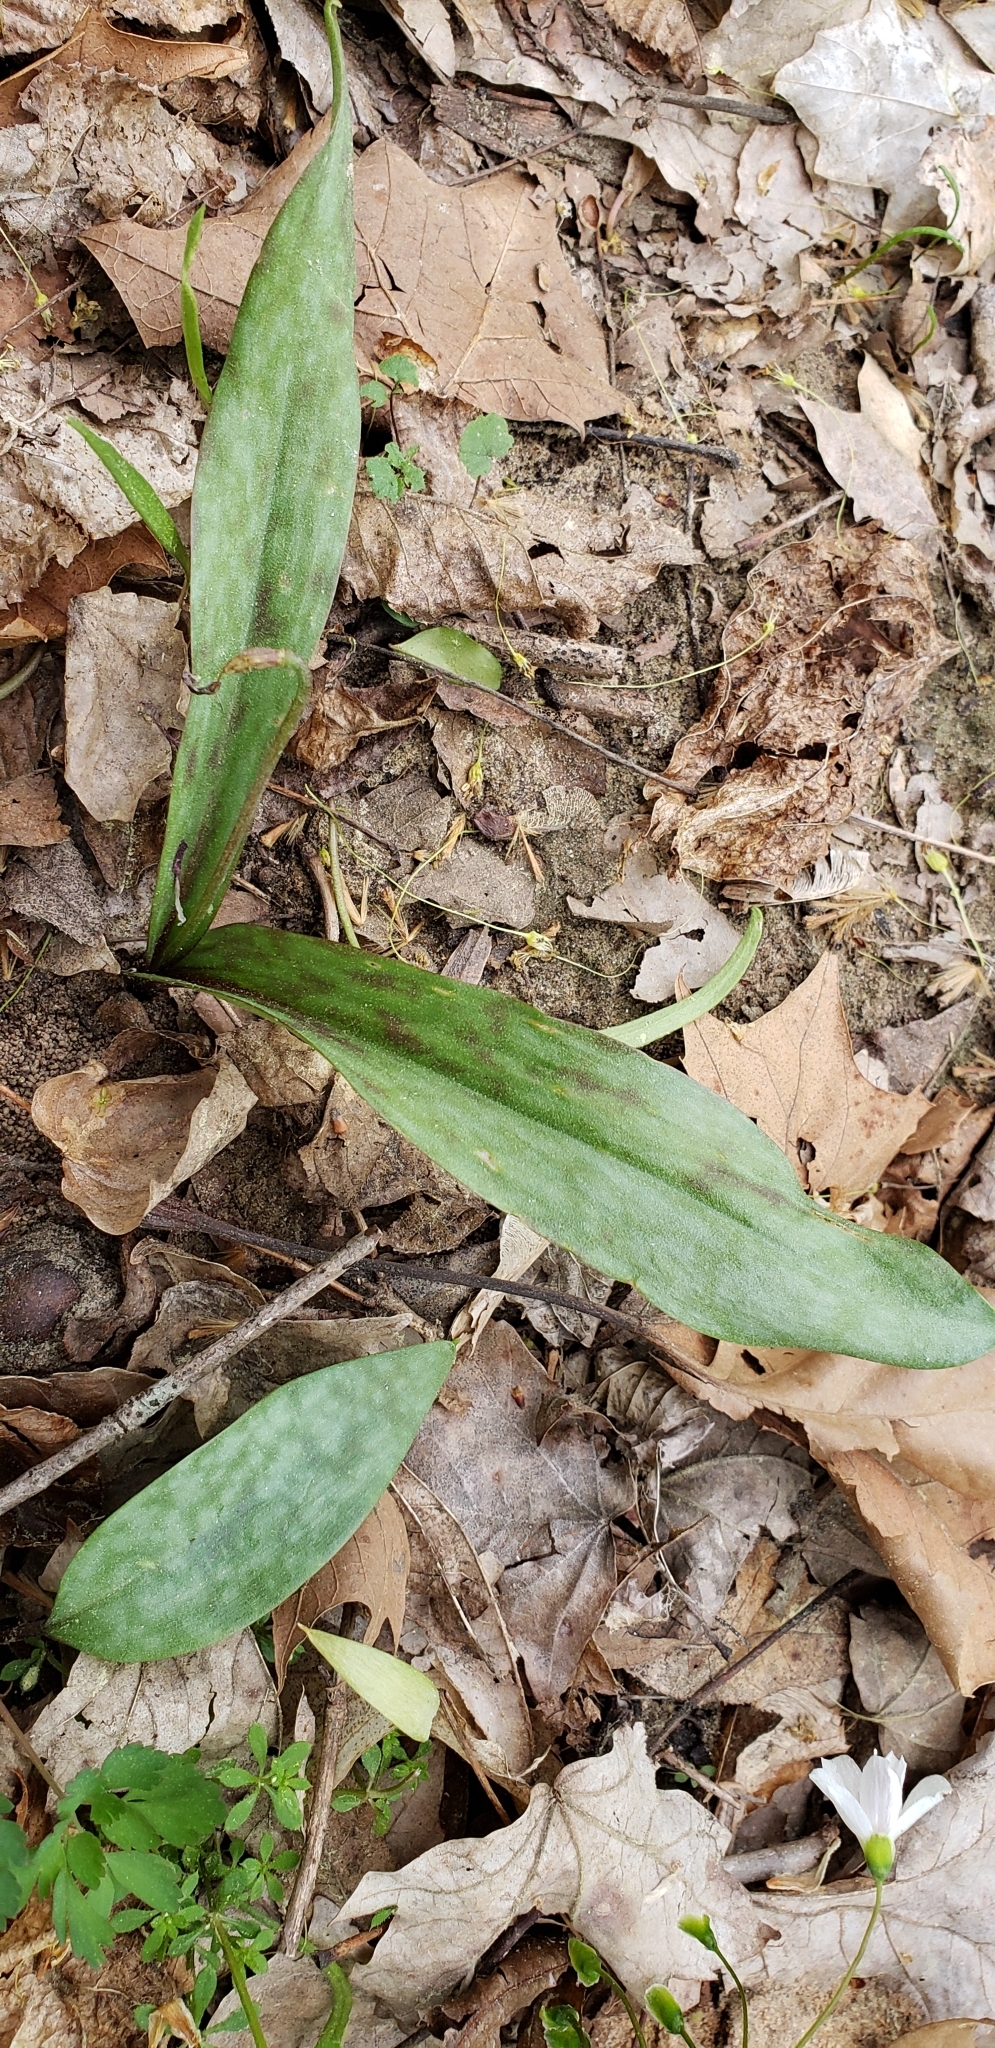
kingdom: Plantae
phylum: Tracheophyta
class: Liliopsida
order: Liliales
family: Liliaceae
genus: Erythronium
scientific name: Erythronium americanum
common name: Yellow adder's-tongue
